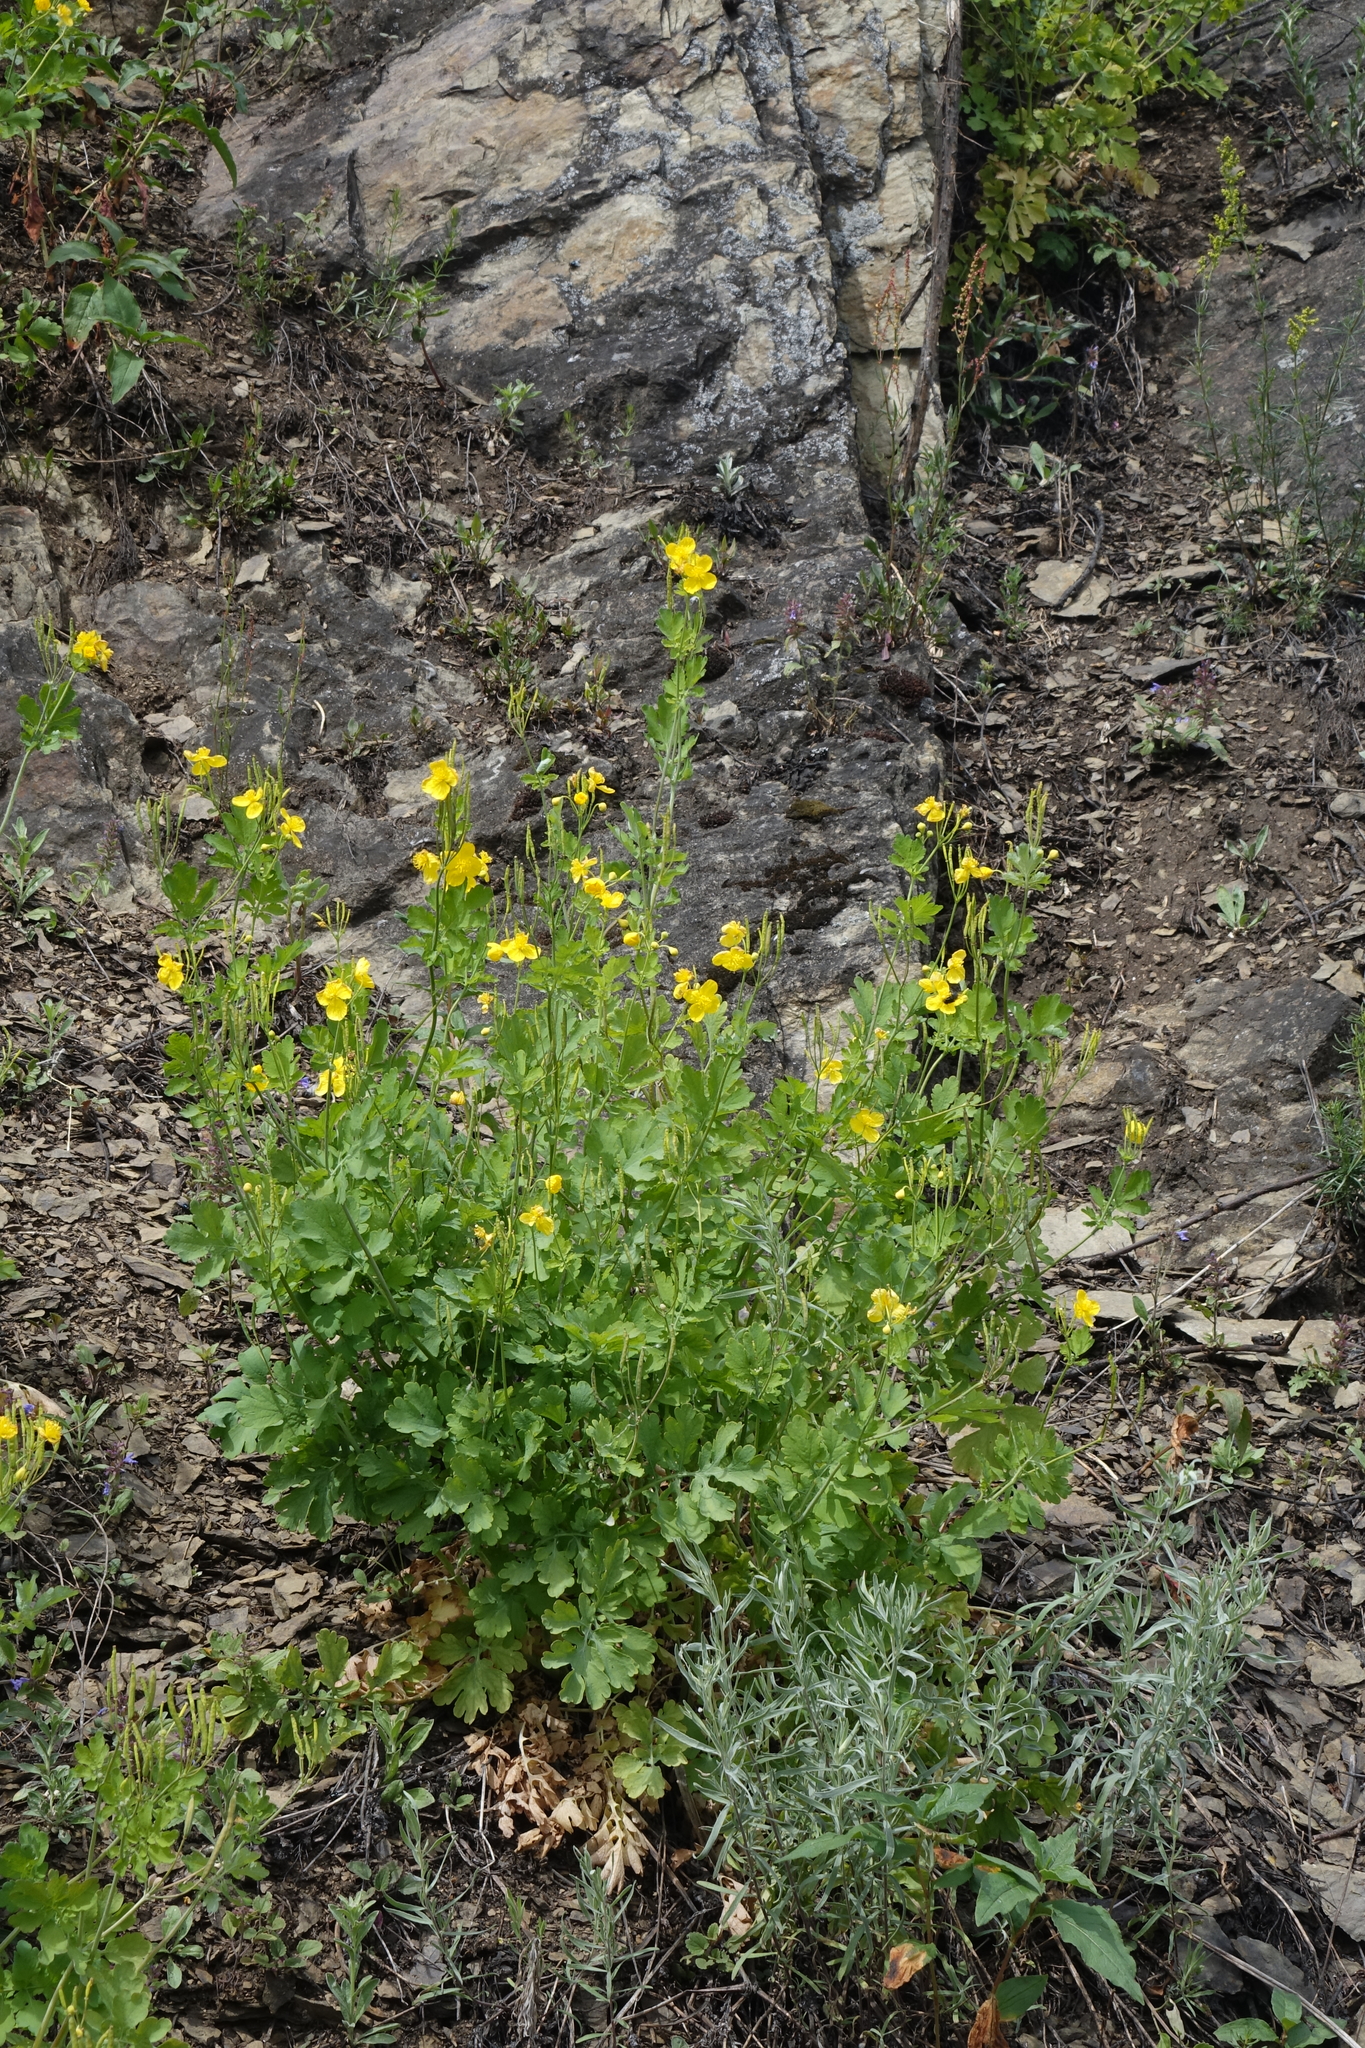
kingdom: Plantae
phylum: Tracheophyta
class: Magnoliopsida
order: Ranunculales
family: Papaveraceae
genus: Chelidonium
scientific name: Chelidonium majus
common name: Greater celandine
